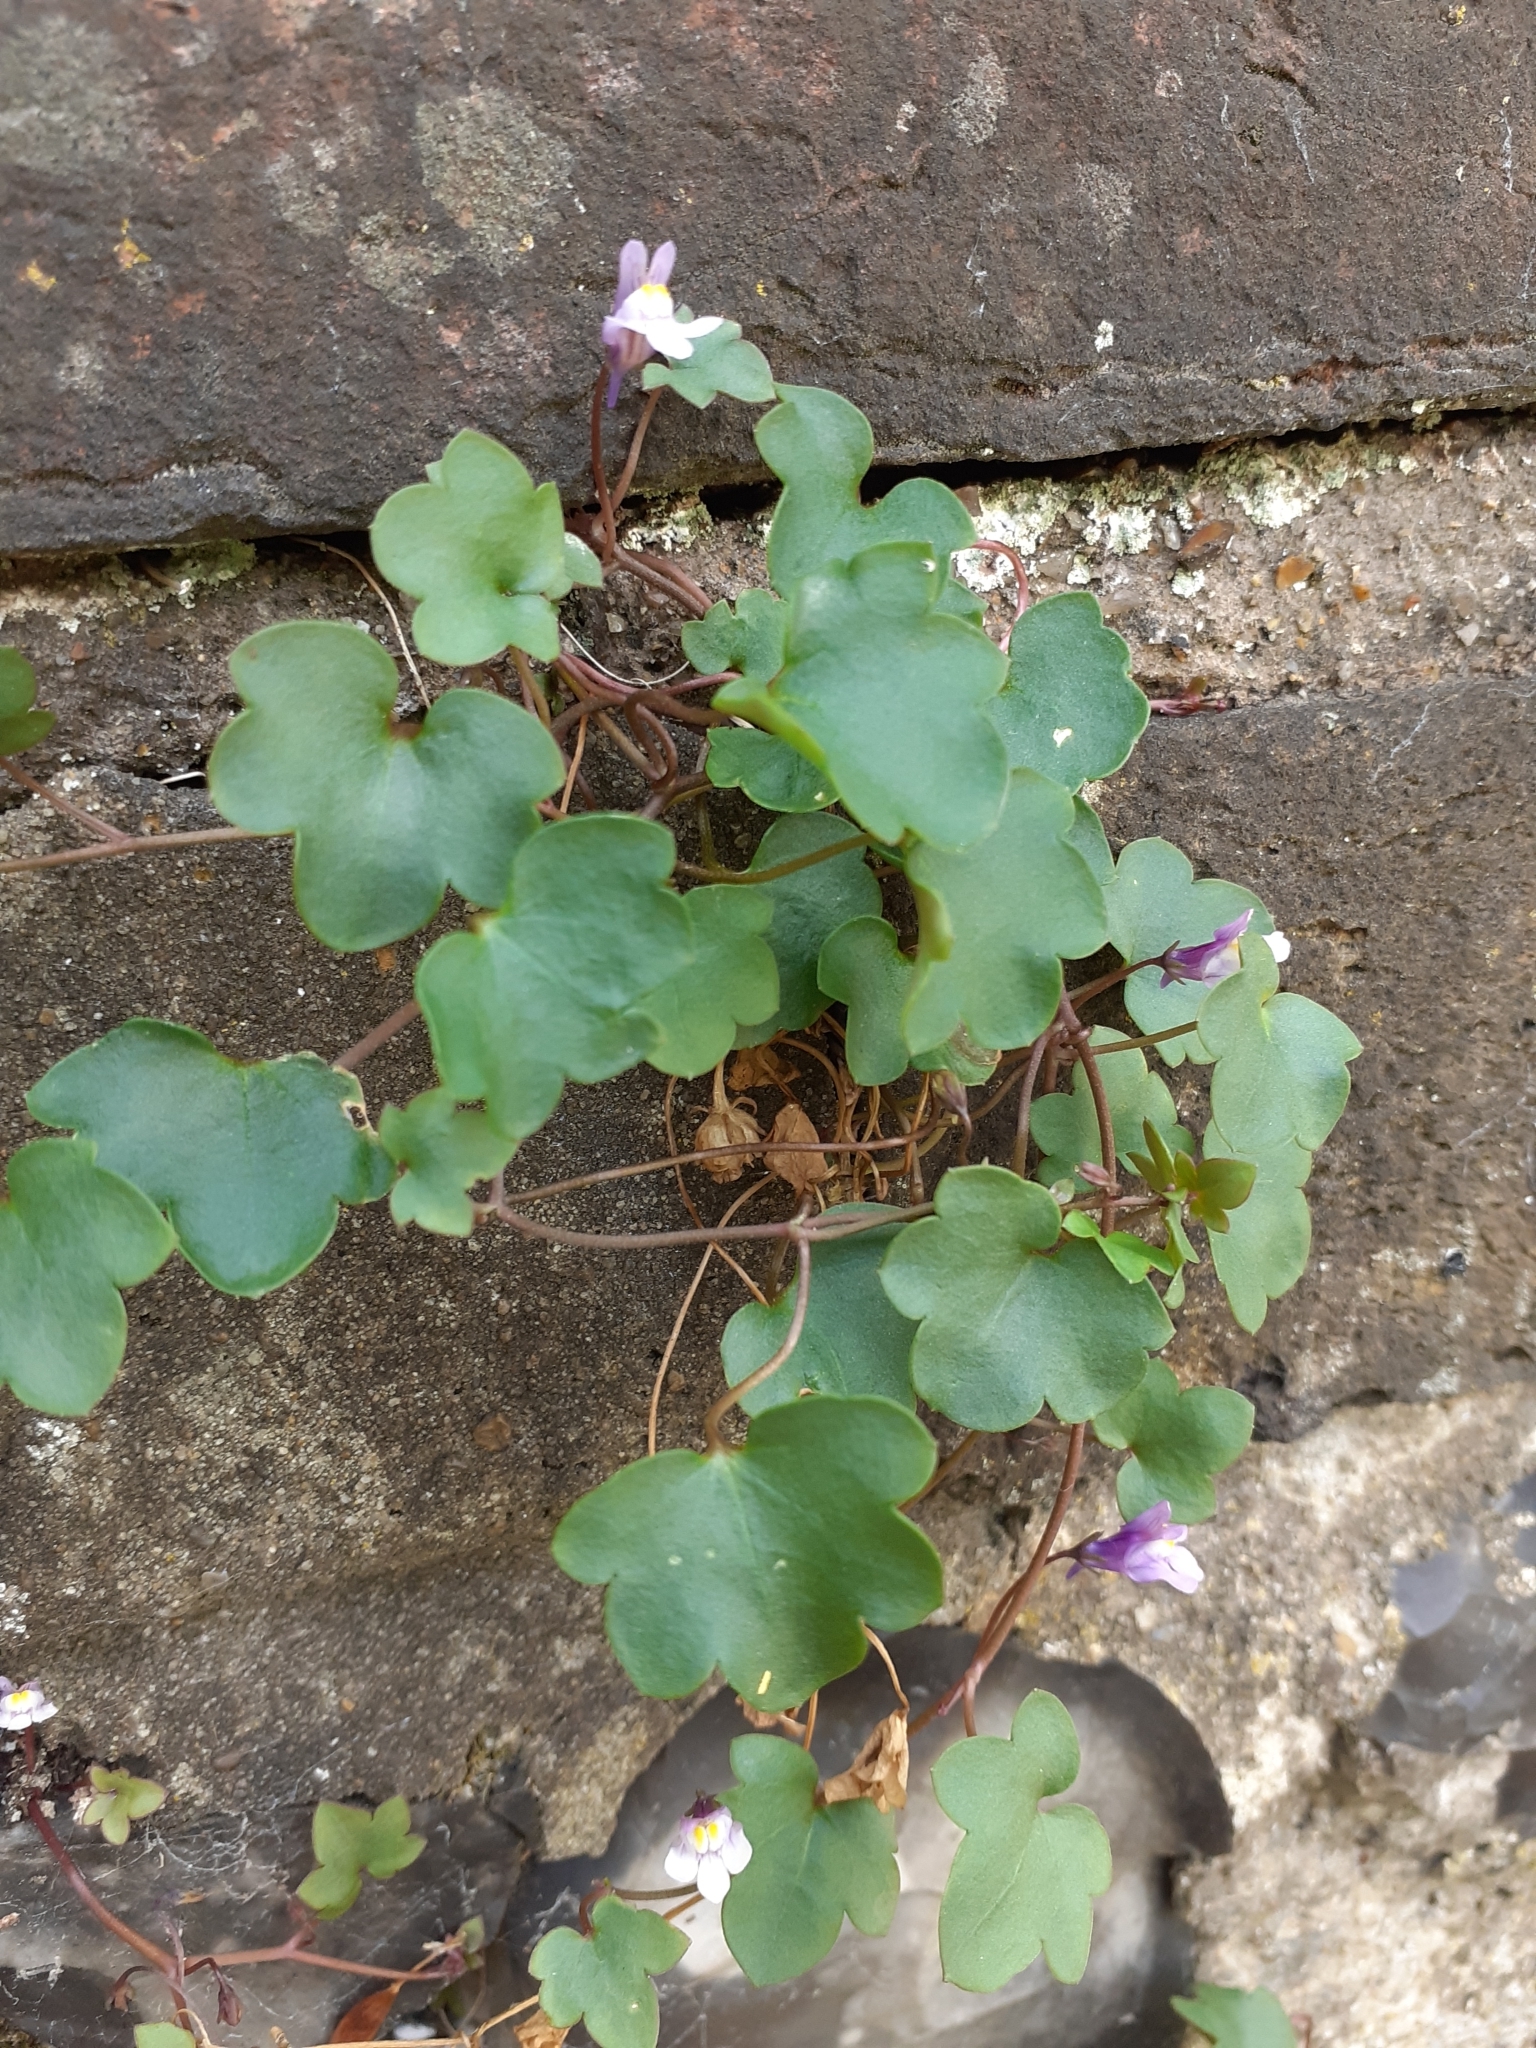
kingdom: Plantae
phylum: Tracheophyta
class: Magnoliopsida
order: Lamiales
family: Plantaginaceae
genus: Cymbalaria
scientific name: Cymbalaria muralis
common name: Ivy-leaved toadflax
